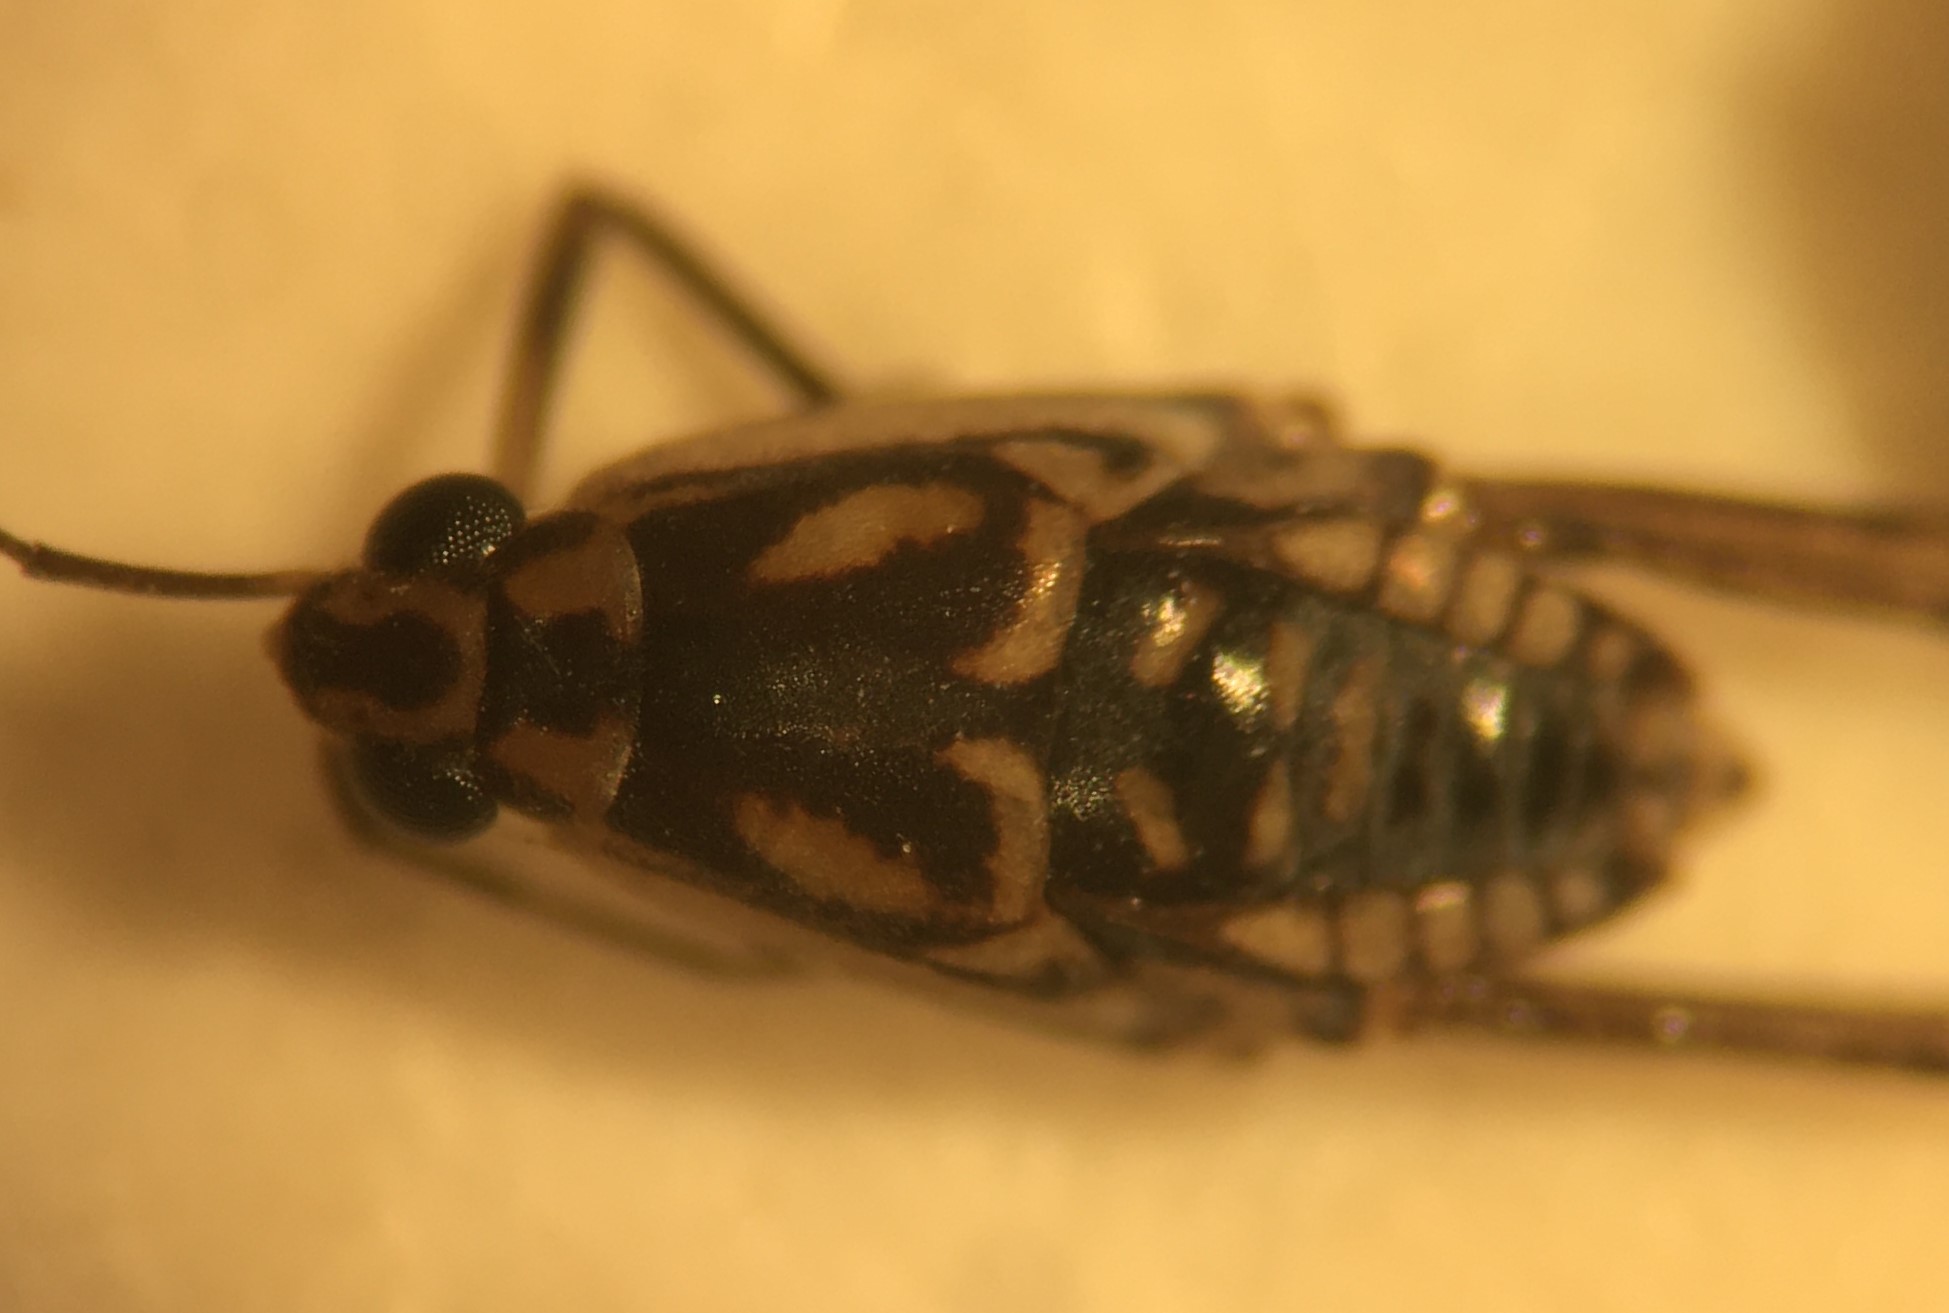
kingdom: Animalia
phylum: Arthropoda
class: Insecta
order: Hemiptera
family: Gerridae
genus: Trepobates
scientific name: Trepobates floridensis
